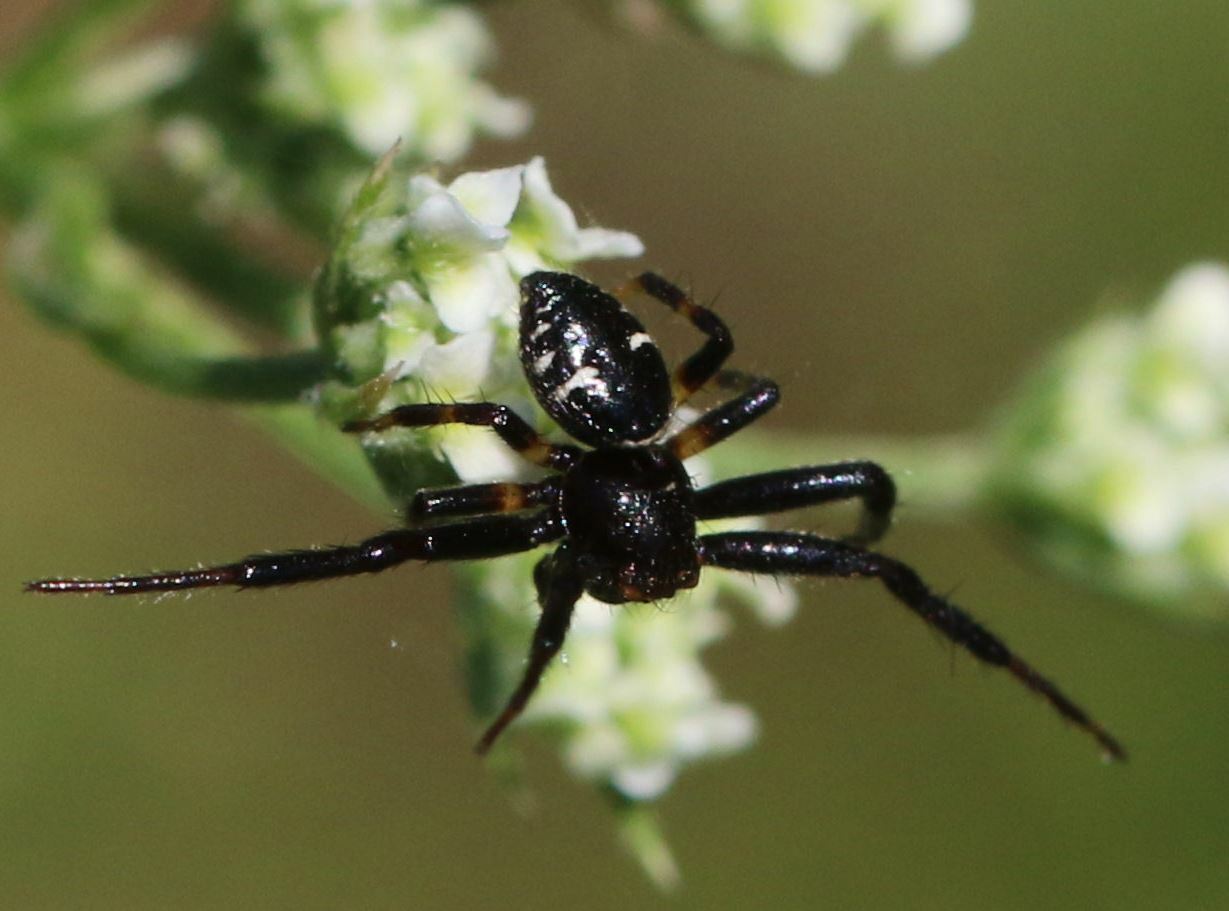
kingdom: Animalia
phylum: Arthropoda
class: Arachnida
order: Araneae
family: Thomisidae
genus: Synema
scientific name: Synema globosum
